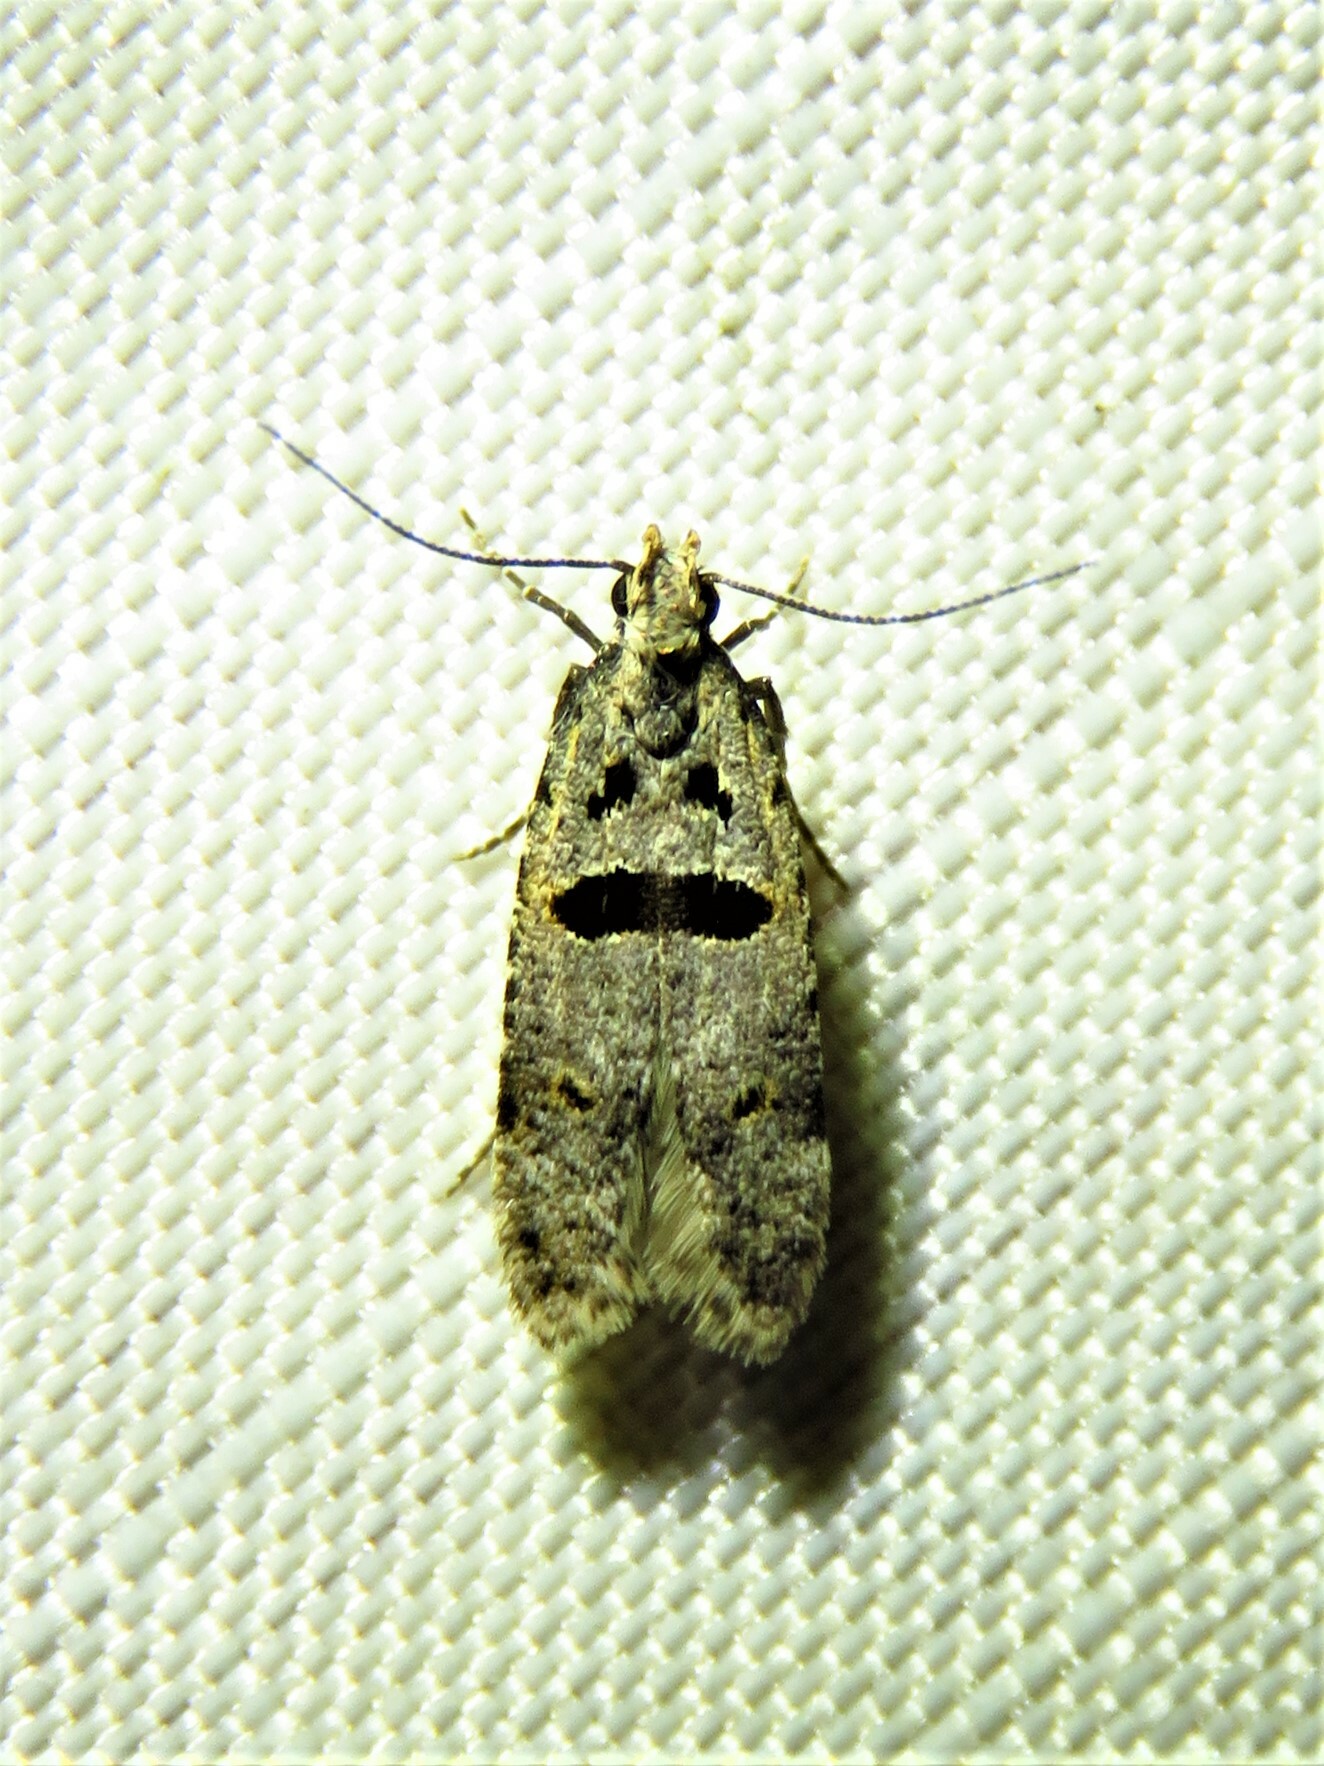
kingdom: Animalia
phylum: Arthropoda
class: Insecta
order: Lepidoptera
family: Gelechiidae
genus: Deltophora
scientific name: Deltophora glandiferella
